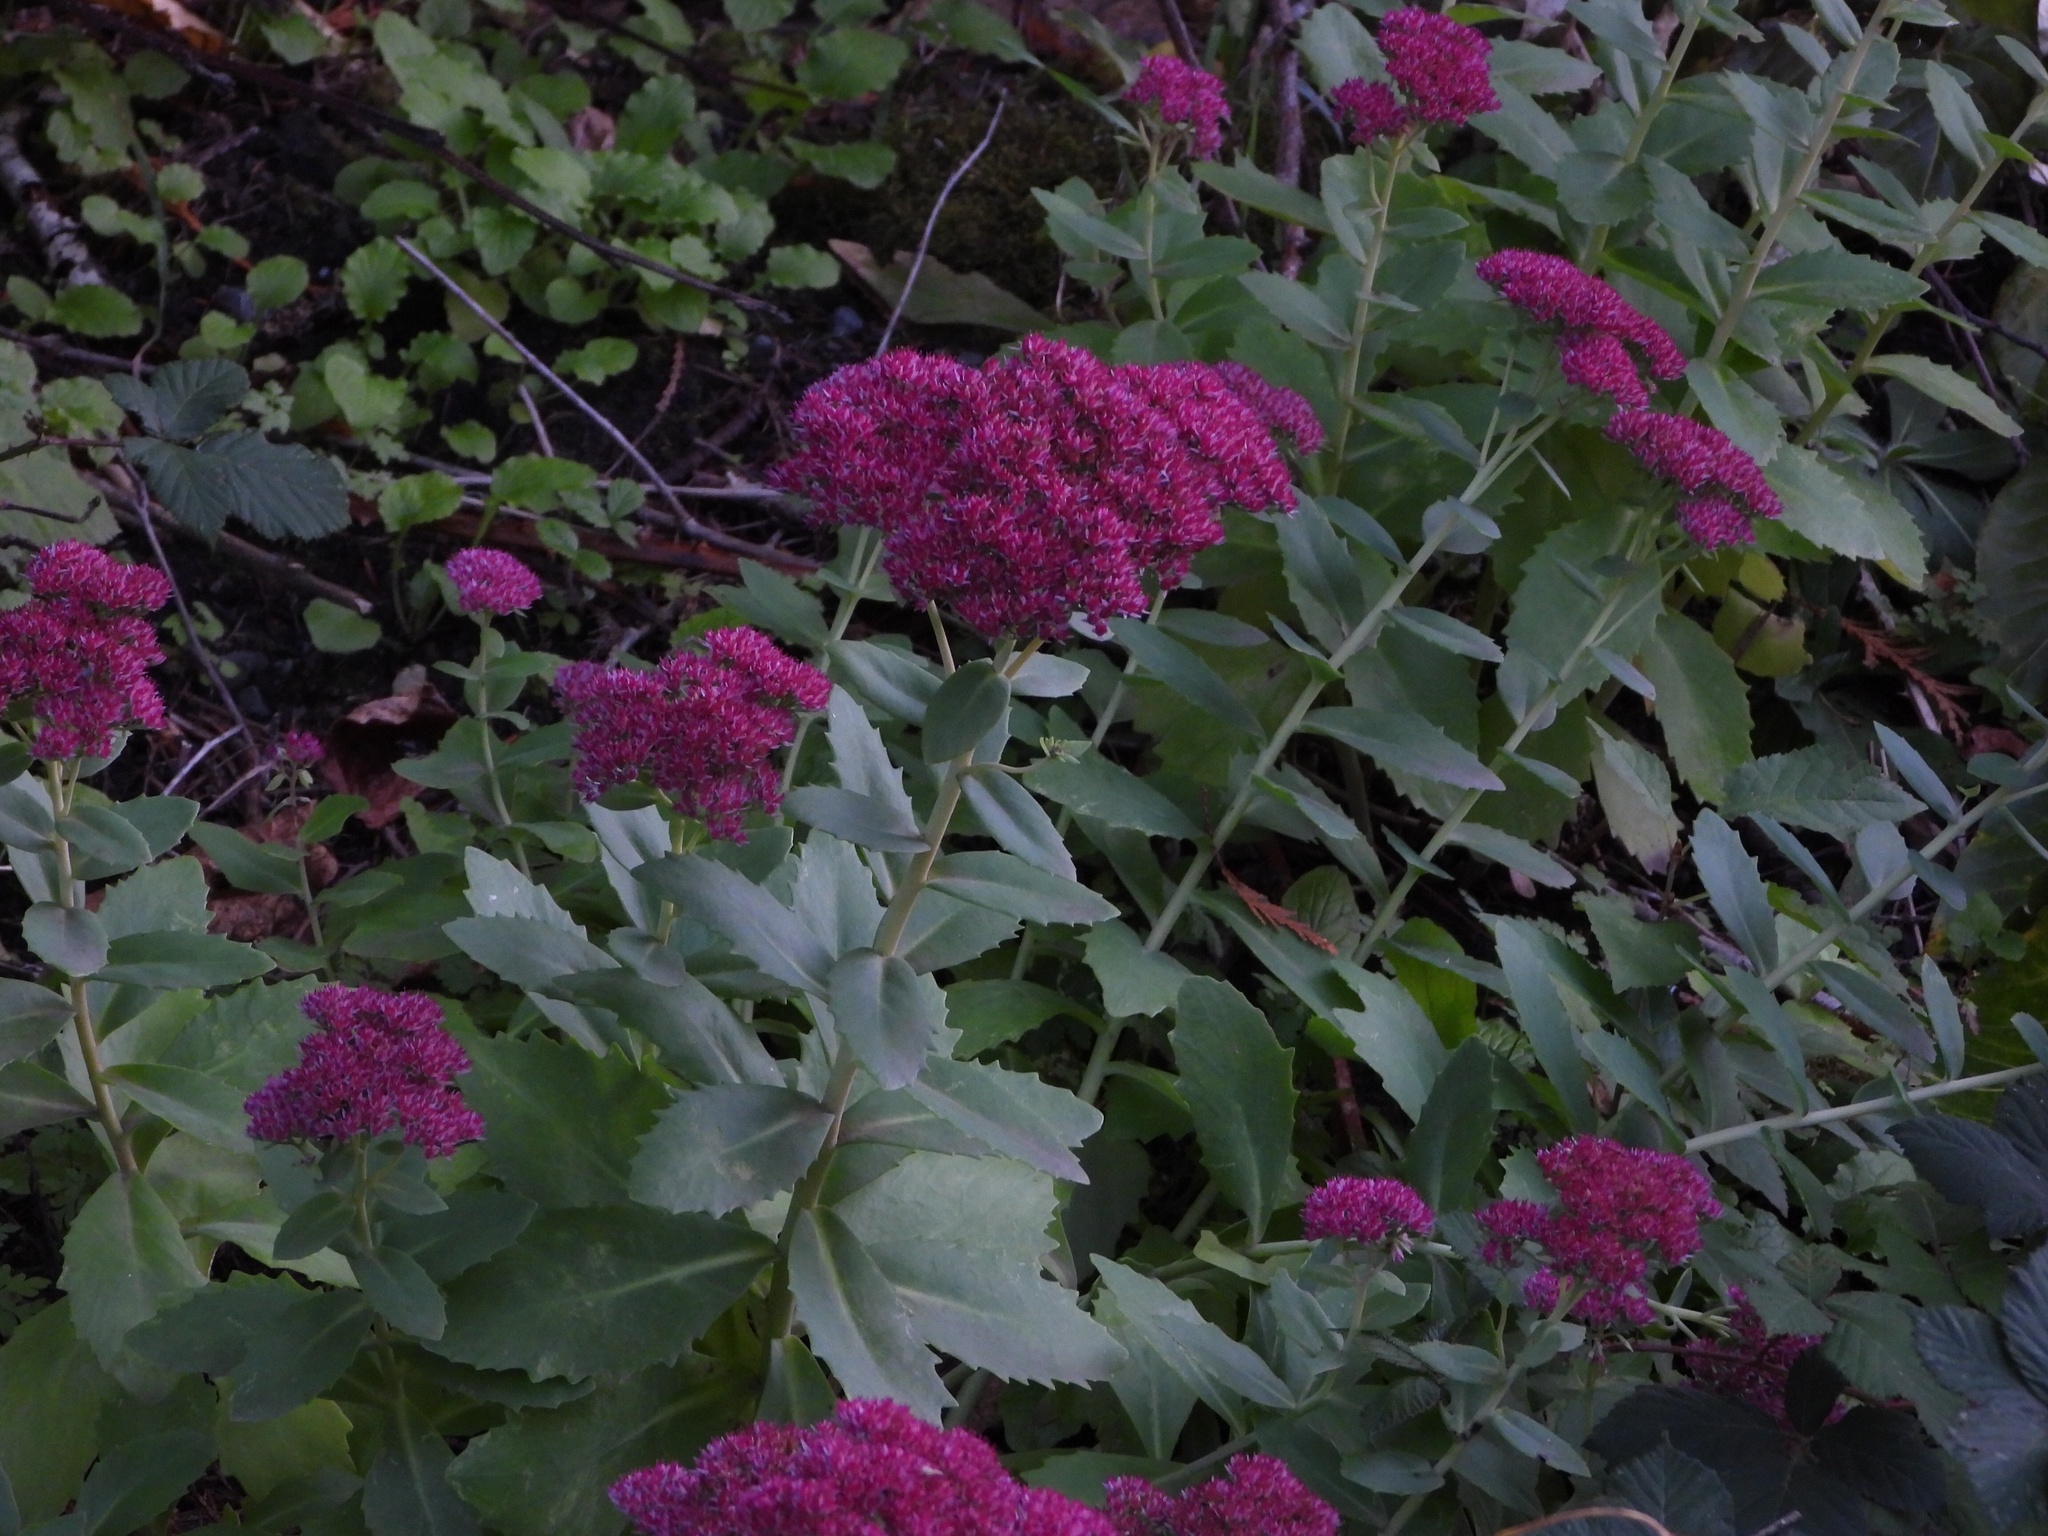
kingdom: Plantae
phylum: Tracheophyta
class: Magnoliopsida
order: Saxifragales
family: Crassulaceae
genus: Hylotelephium
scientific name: Hylotelephium
